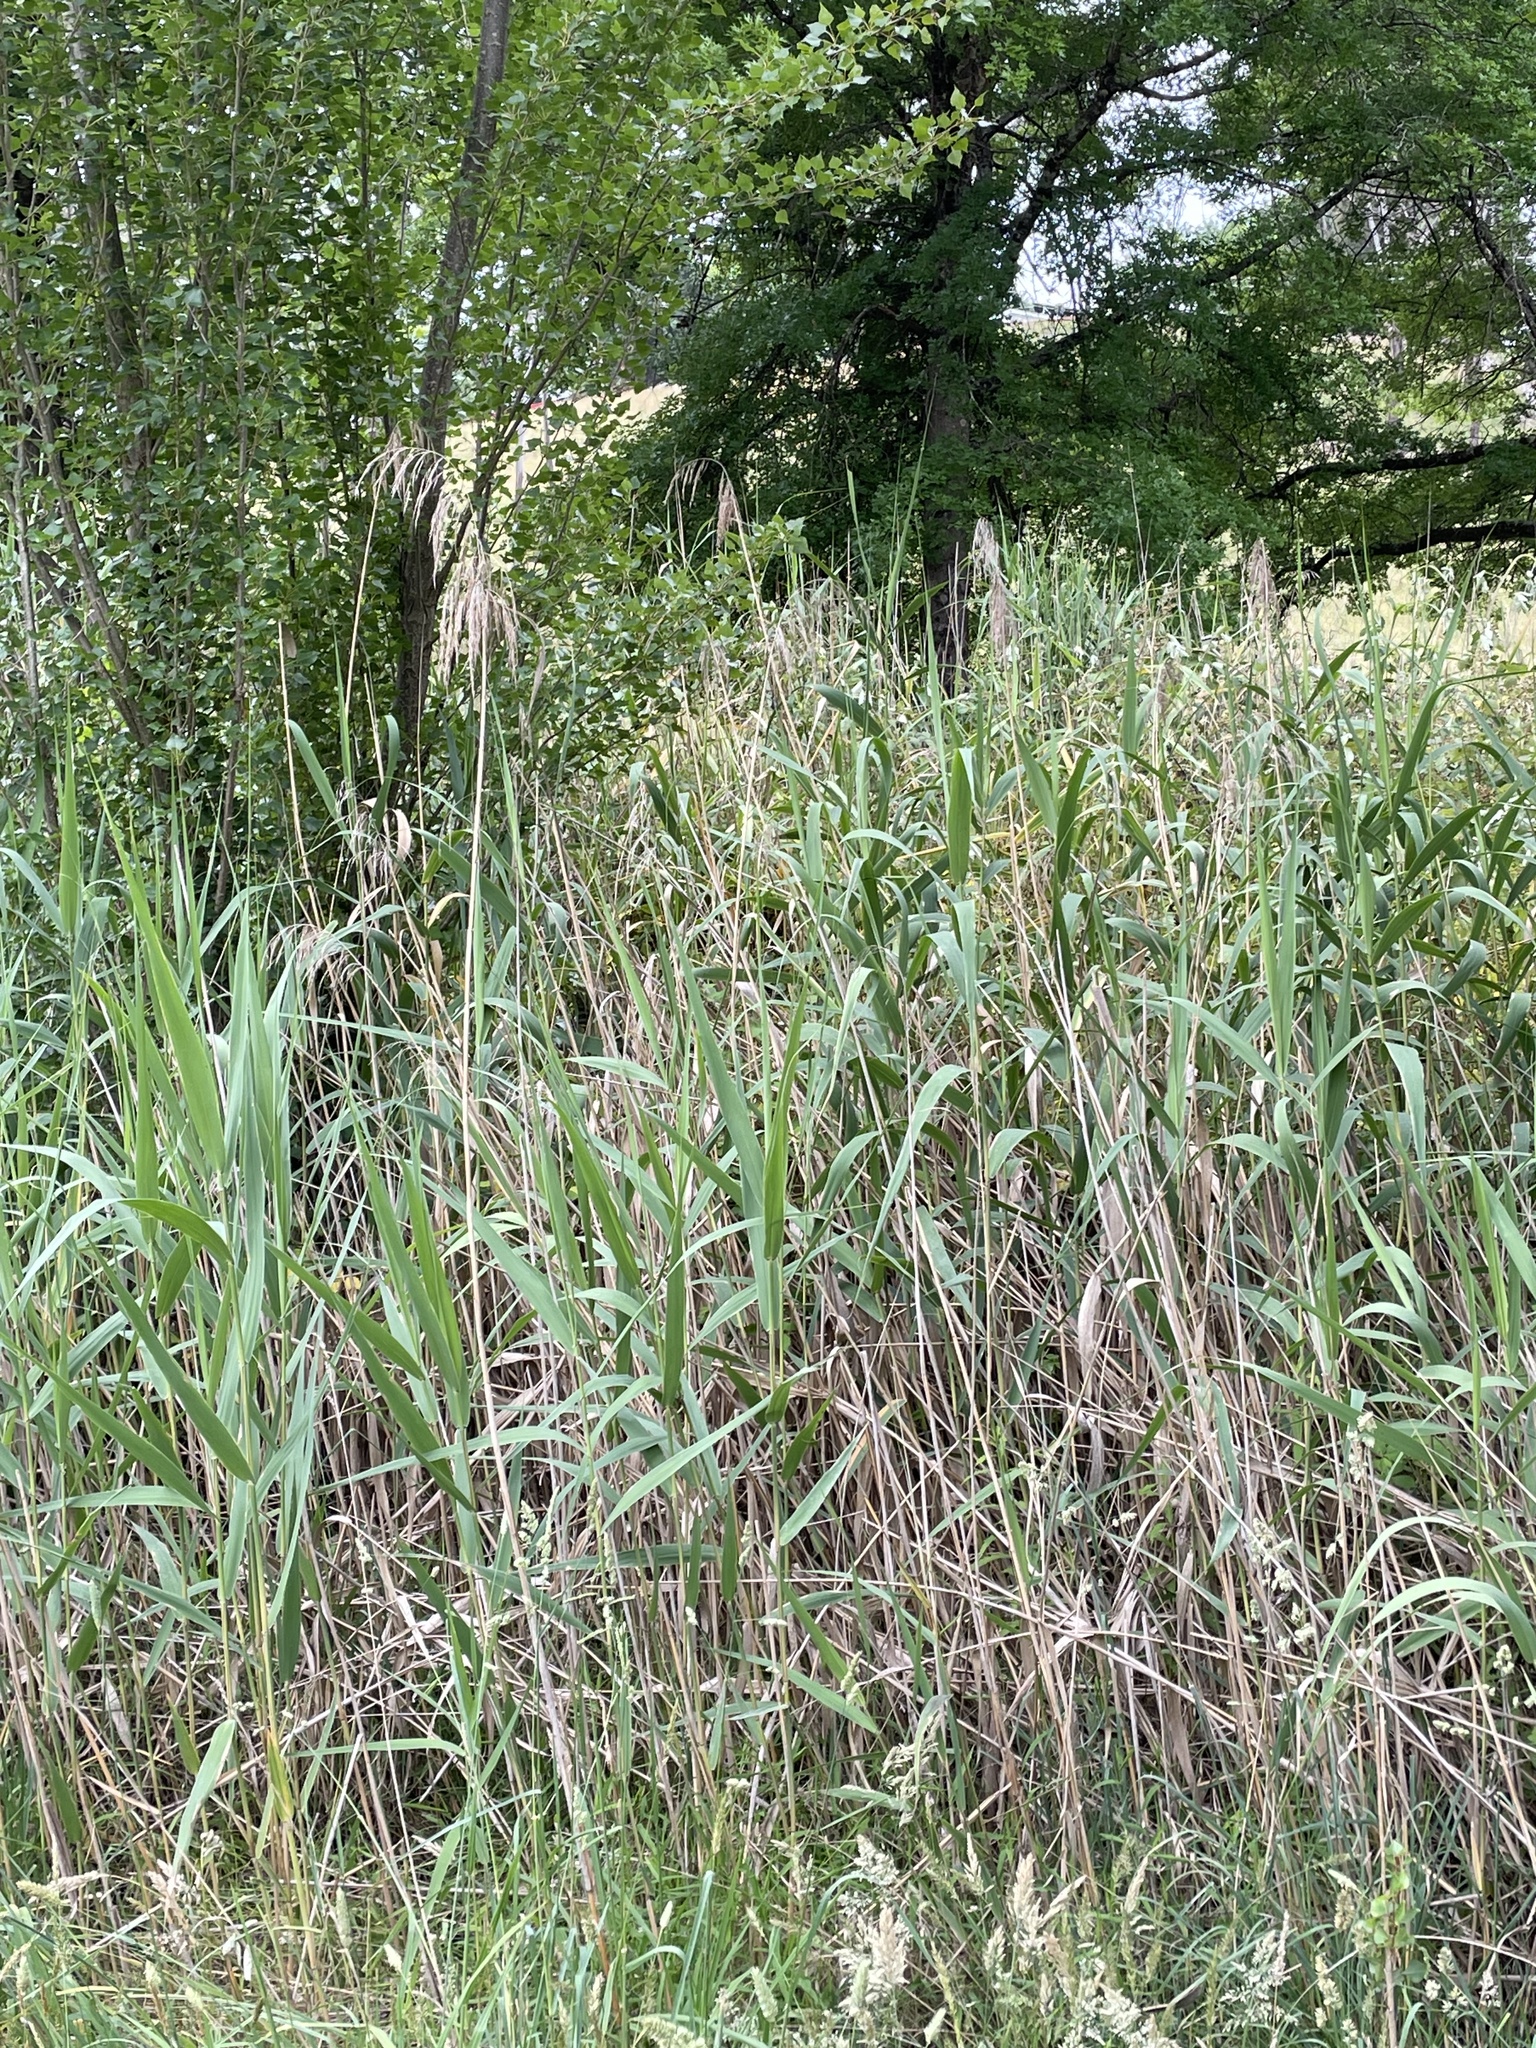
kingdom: Plantae
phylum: Tracheophyta
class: Liliopsida
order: Poales
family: Poaceae
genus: Phragmites
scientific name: Phragmites australis
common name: Common reed
